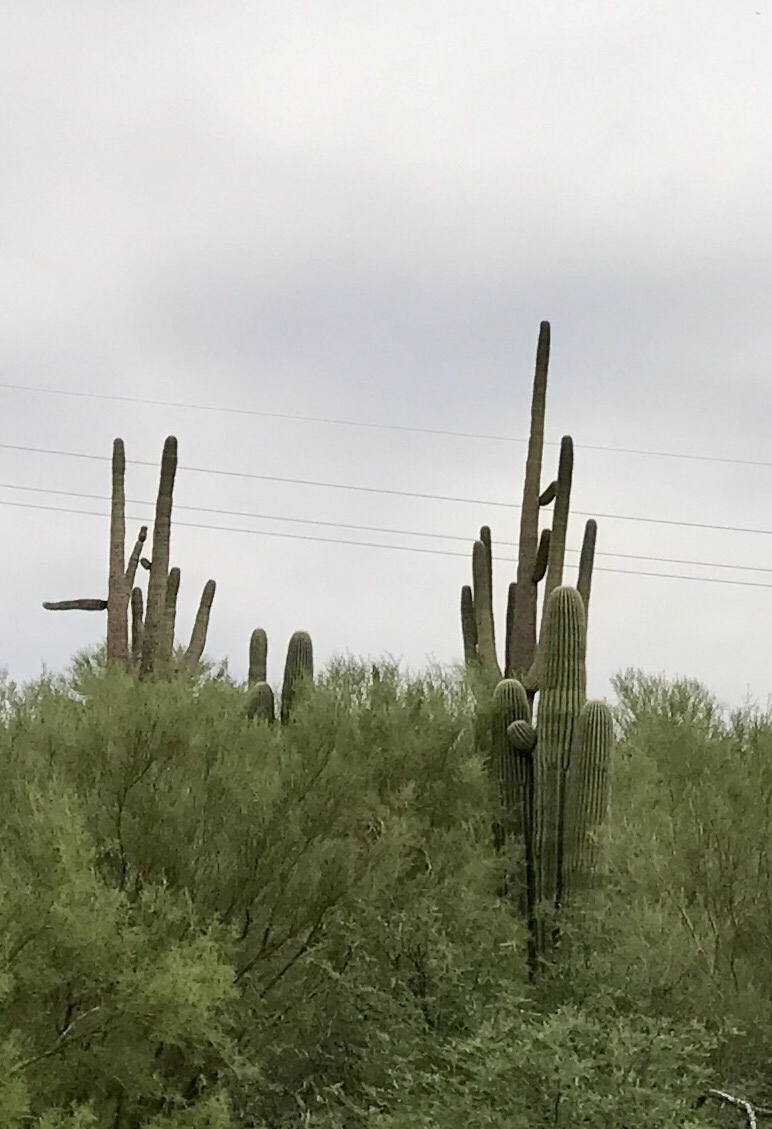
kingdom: Plantae
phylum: Tracheophyta
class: Magnoliopsida
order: Caryophyllales
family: Cactaceae
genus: Carnegiea
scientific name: Carnegiea gigantea
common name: Saguaro
